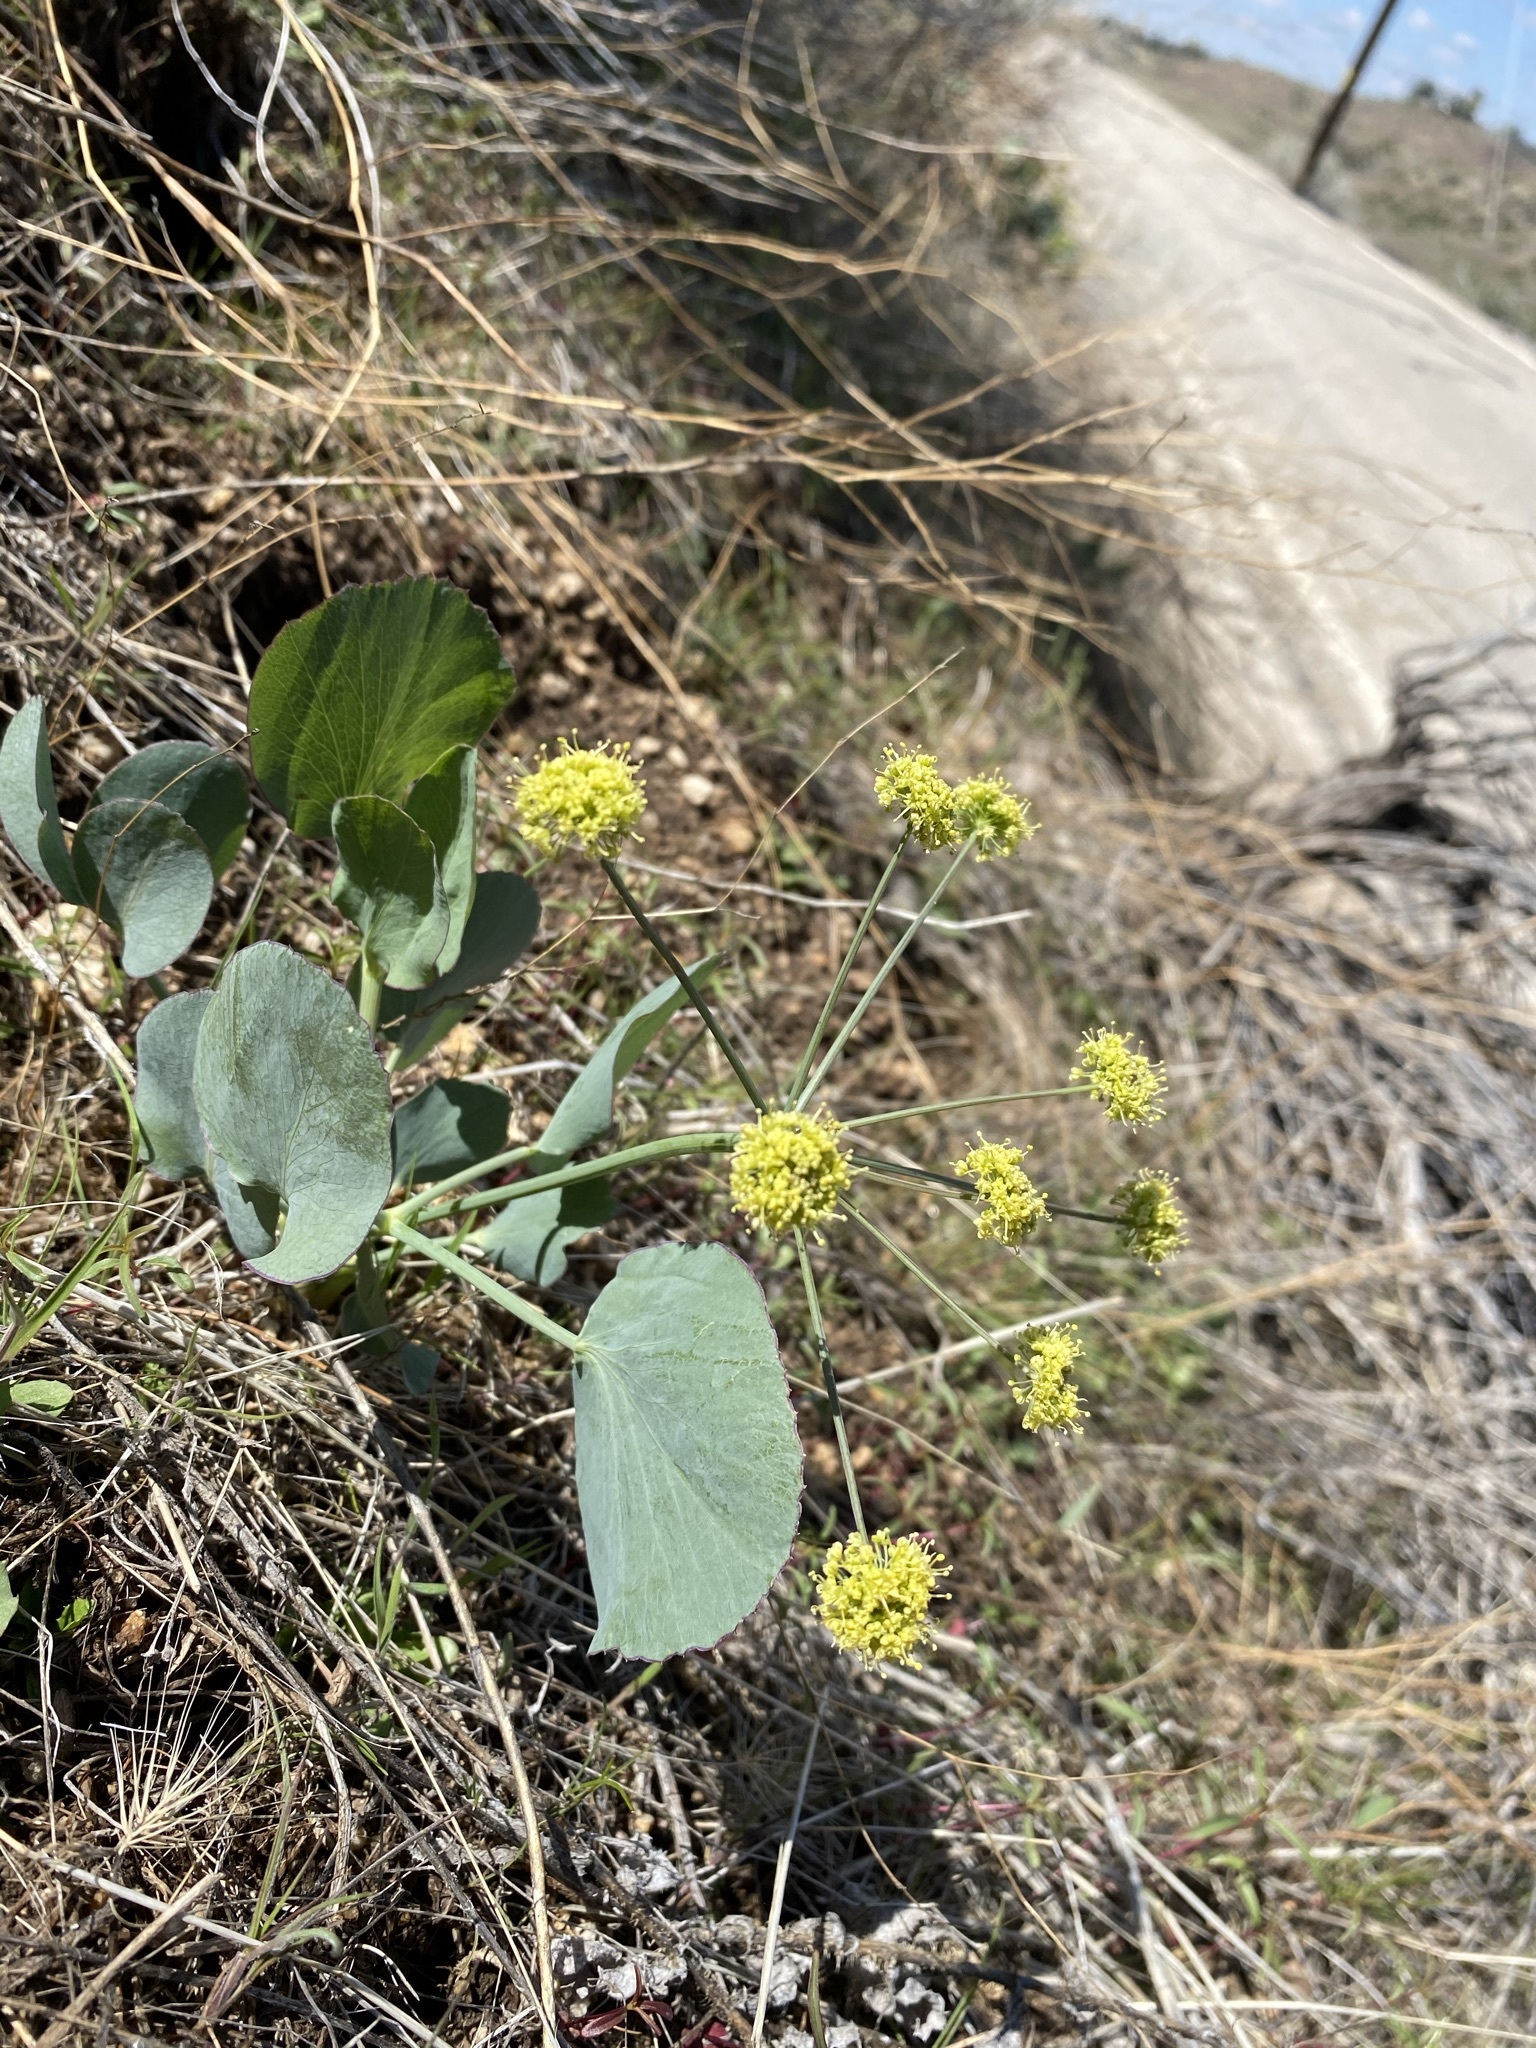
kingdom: Plantae
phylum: Tracheophyta
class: Magnoliopsida
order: Apiales
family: Apiaceae
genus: Lomatium
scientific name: Lomatium nudicaule
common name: Pestle lomatium
